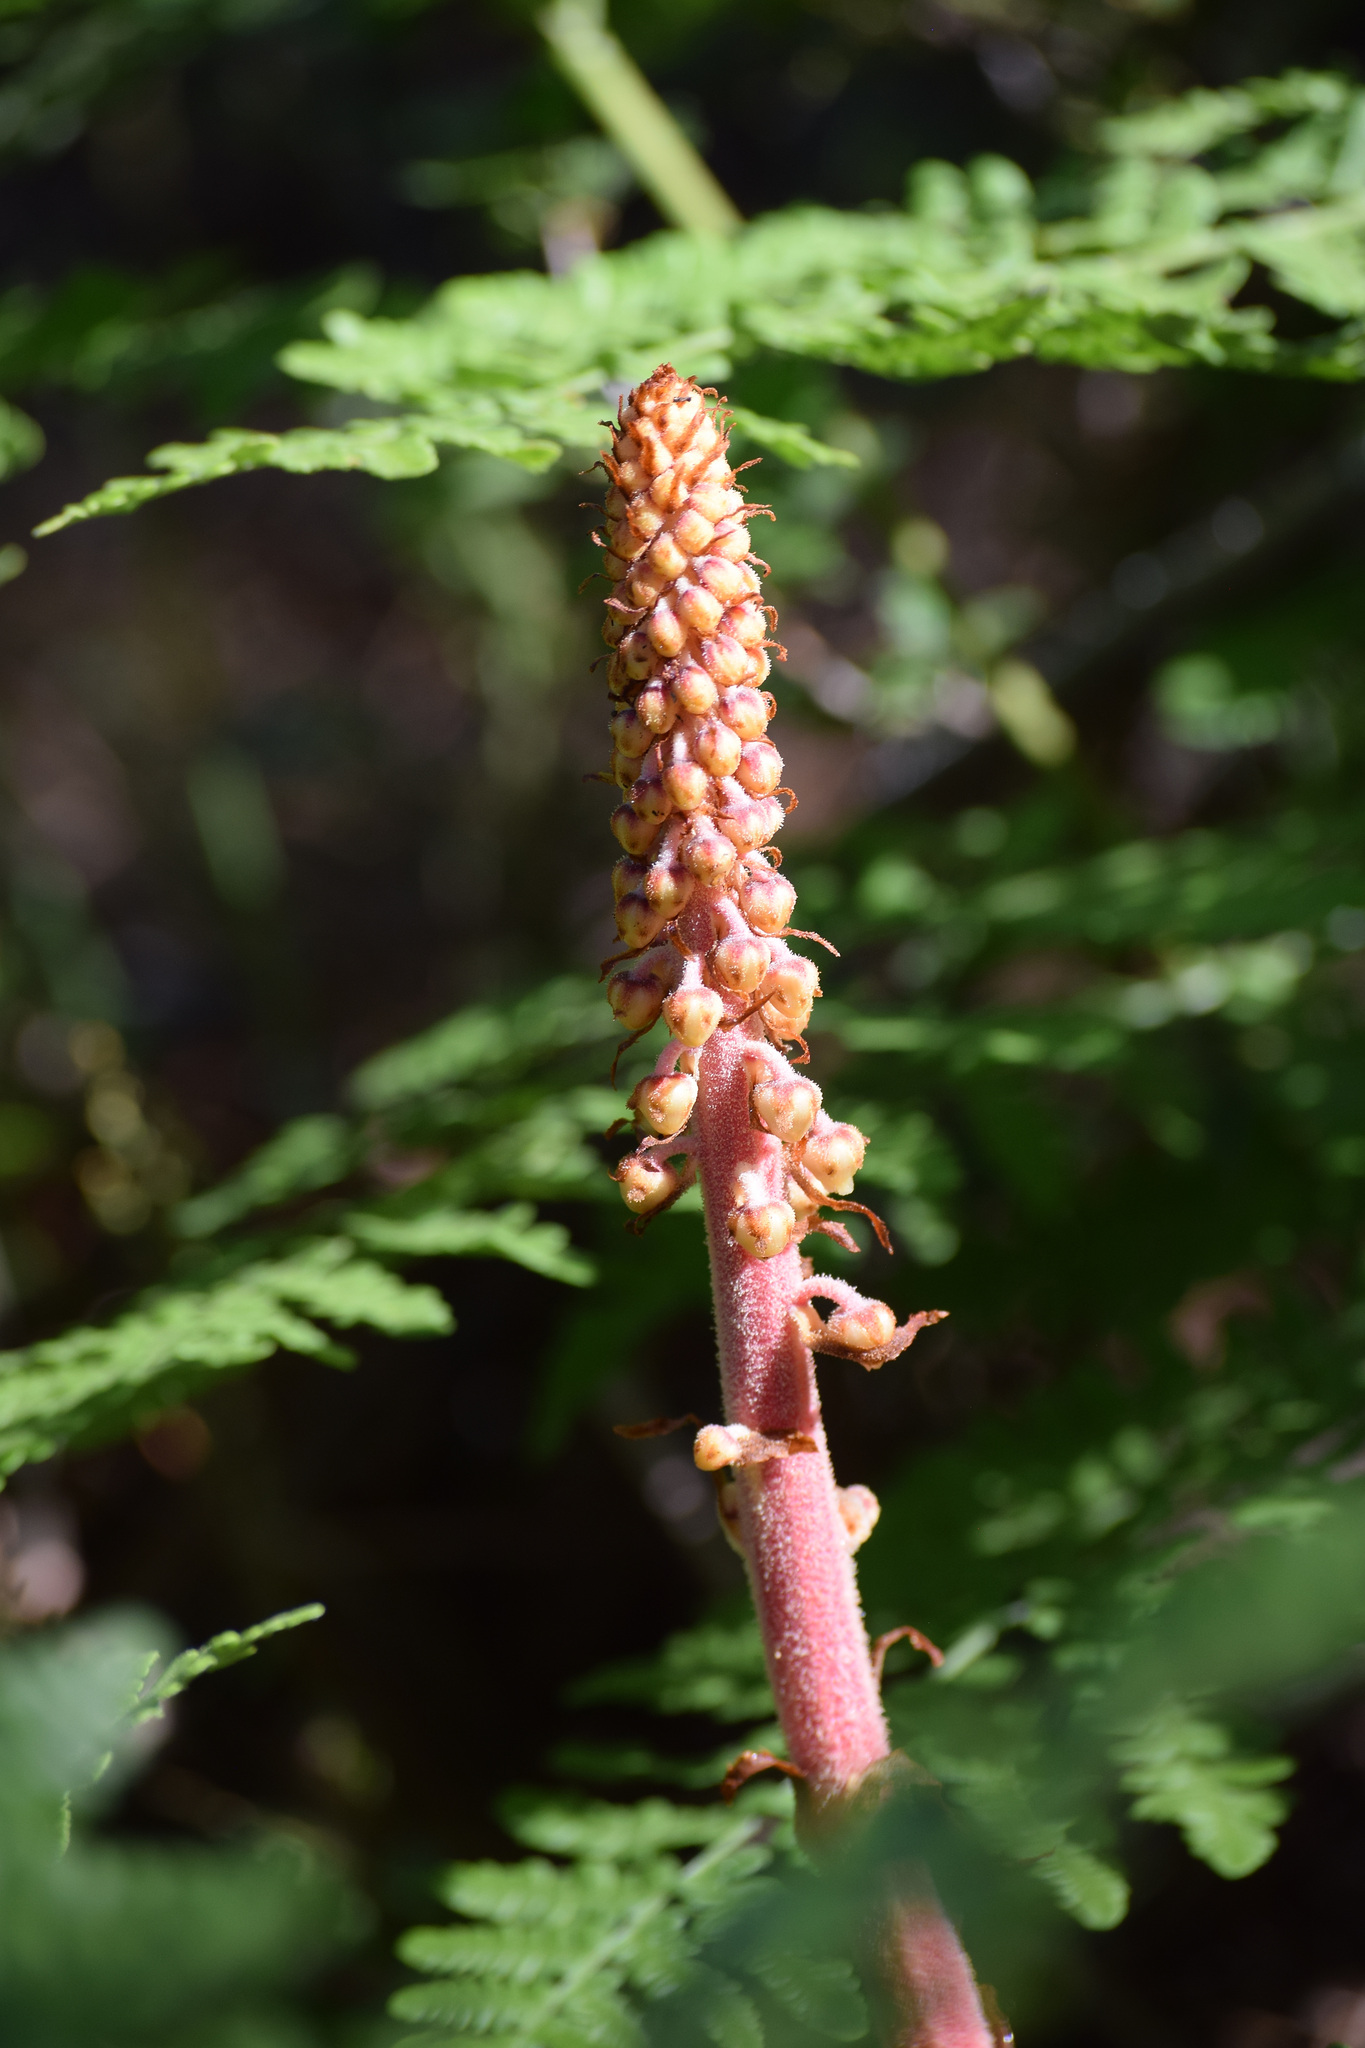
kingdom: Plantae
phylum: Tracheophyta
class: Magnoliopsida
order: Ericales
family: Ericaceae
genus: Pterospora
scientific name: Pterospora andromedea
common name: Giant bird's-nest
